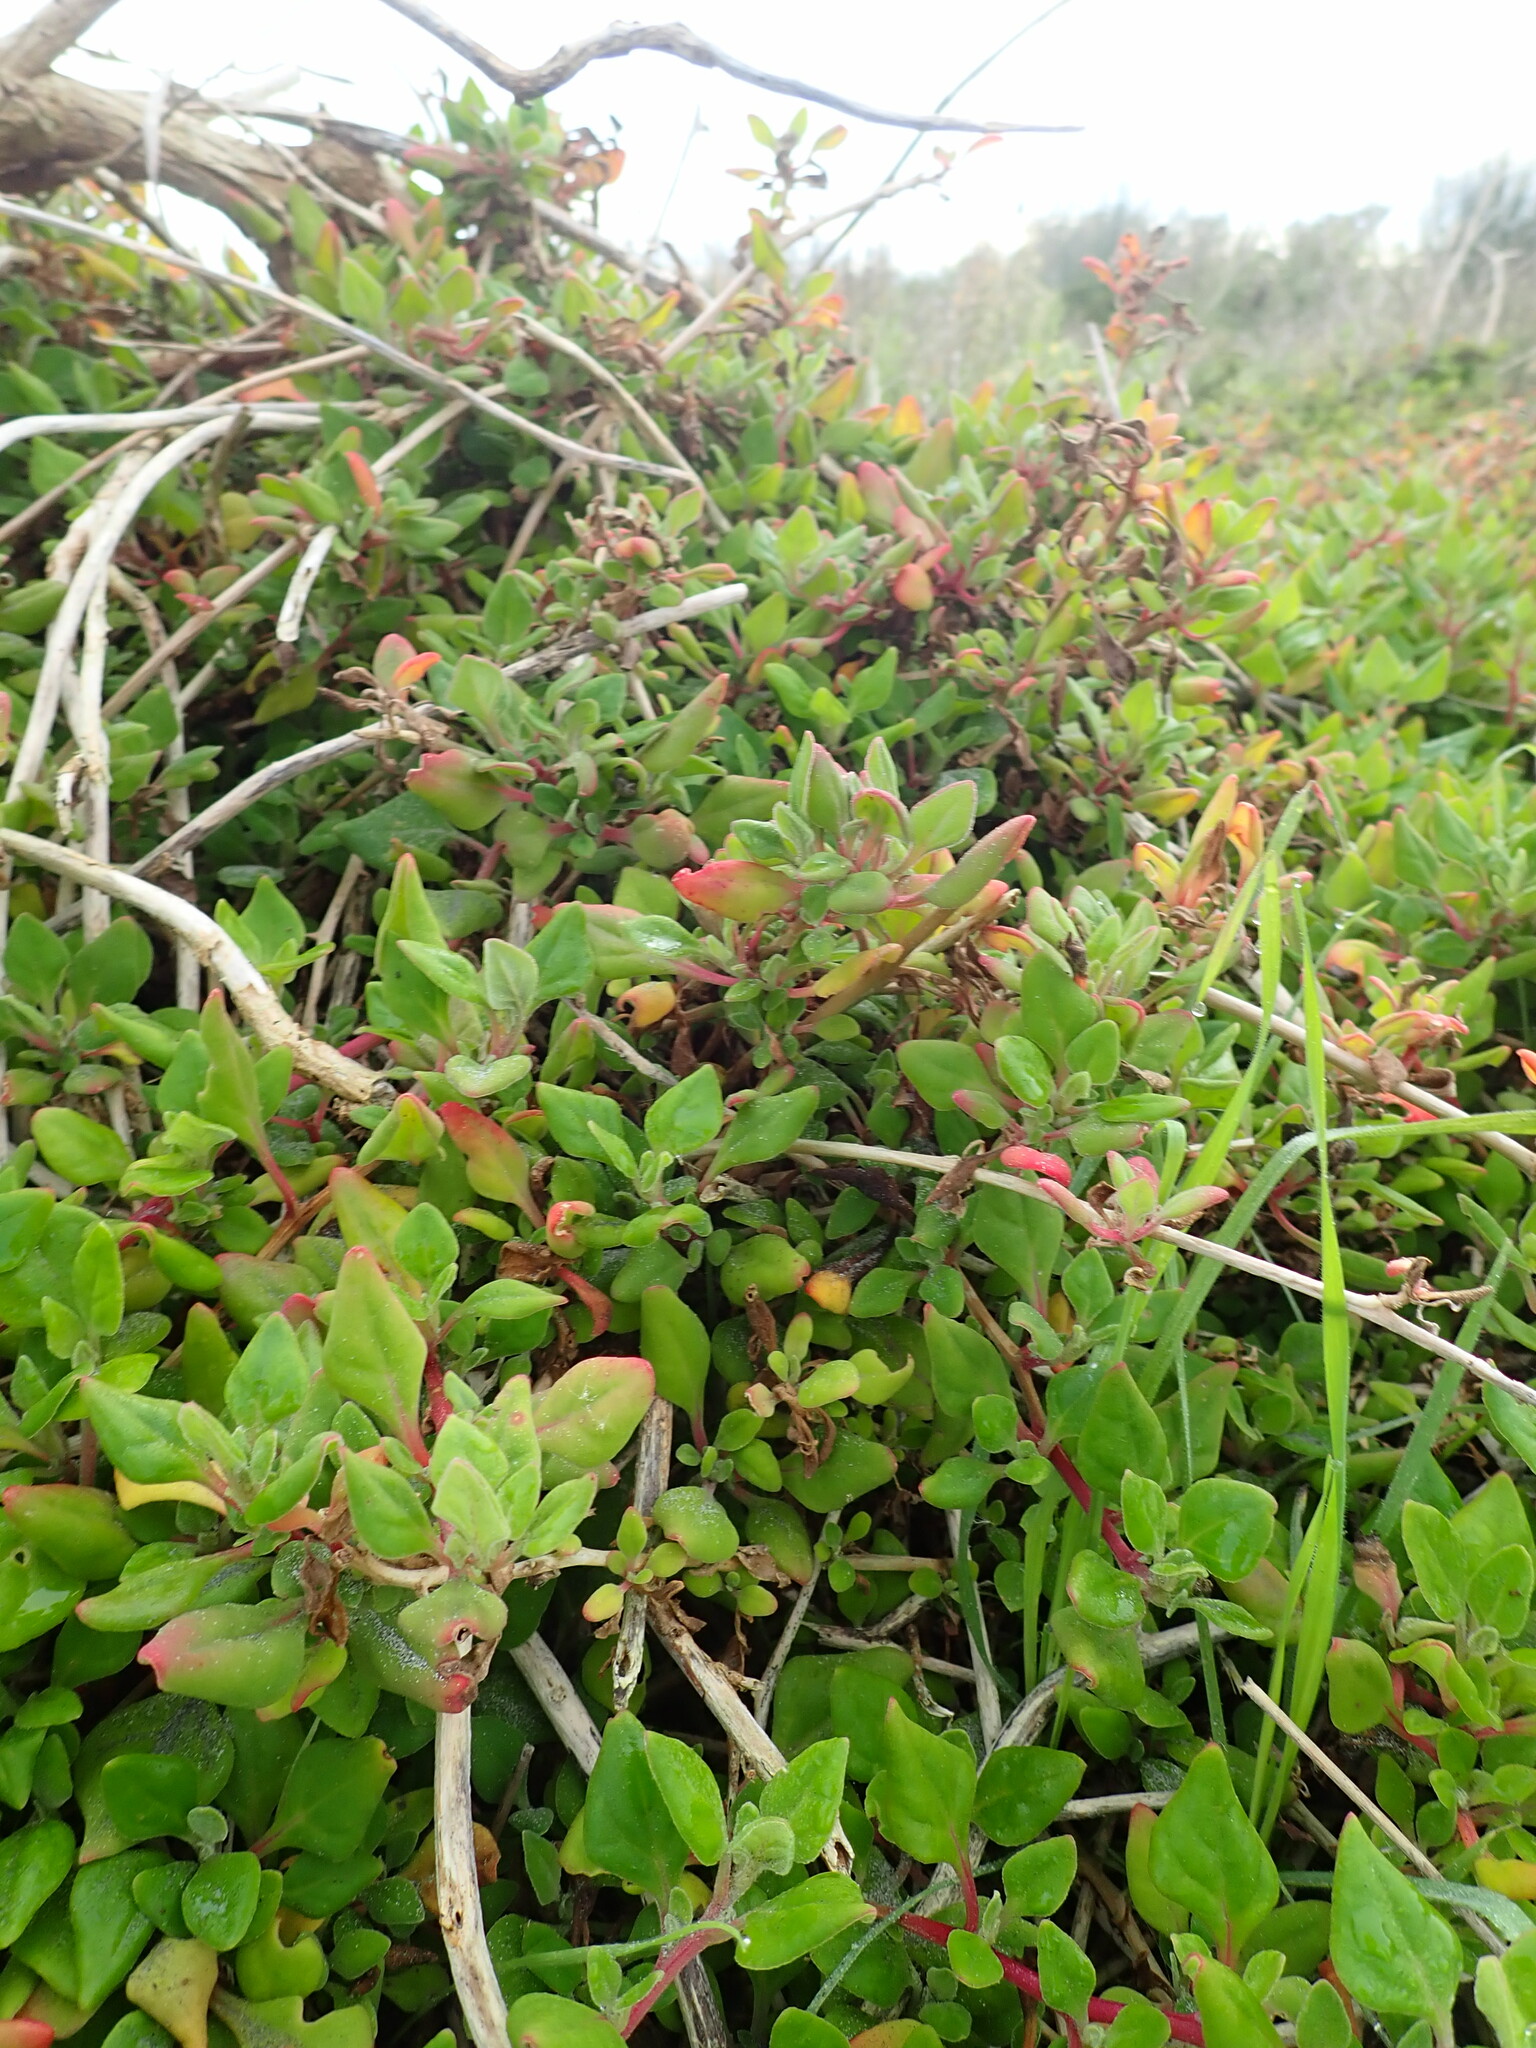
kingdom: Plantae
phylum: Tracheophyta
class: Magnoliopsida
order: Caryophyllales
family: Aizoaceae
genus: Tetragonia
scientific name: Tetragonia implexicoma
